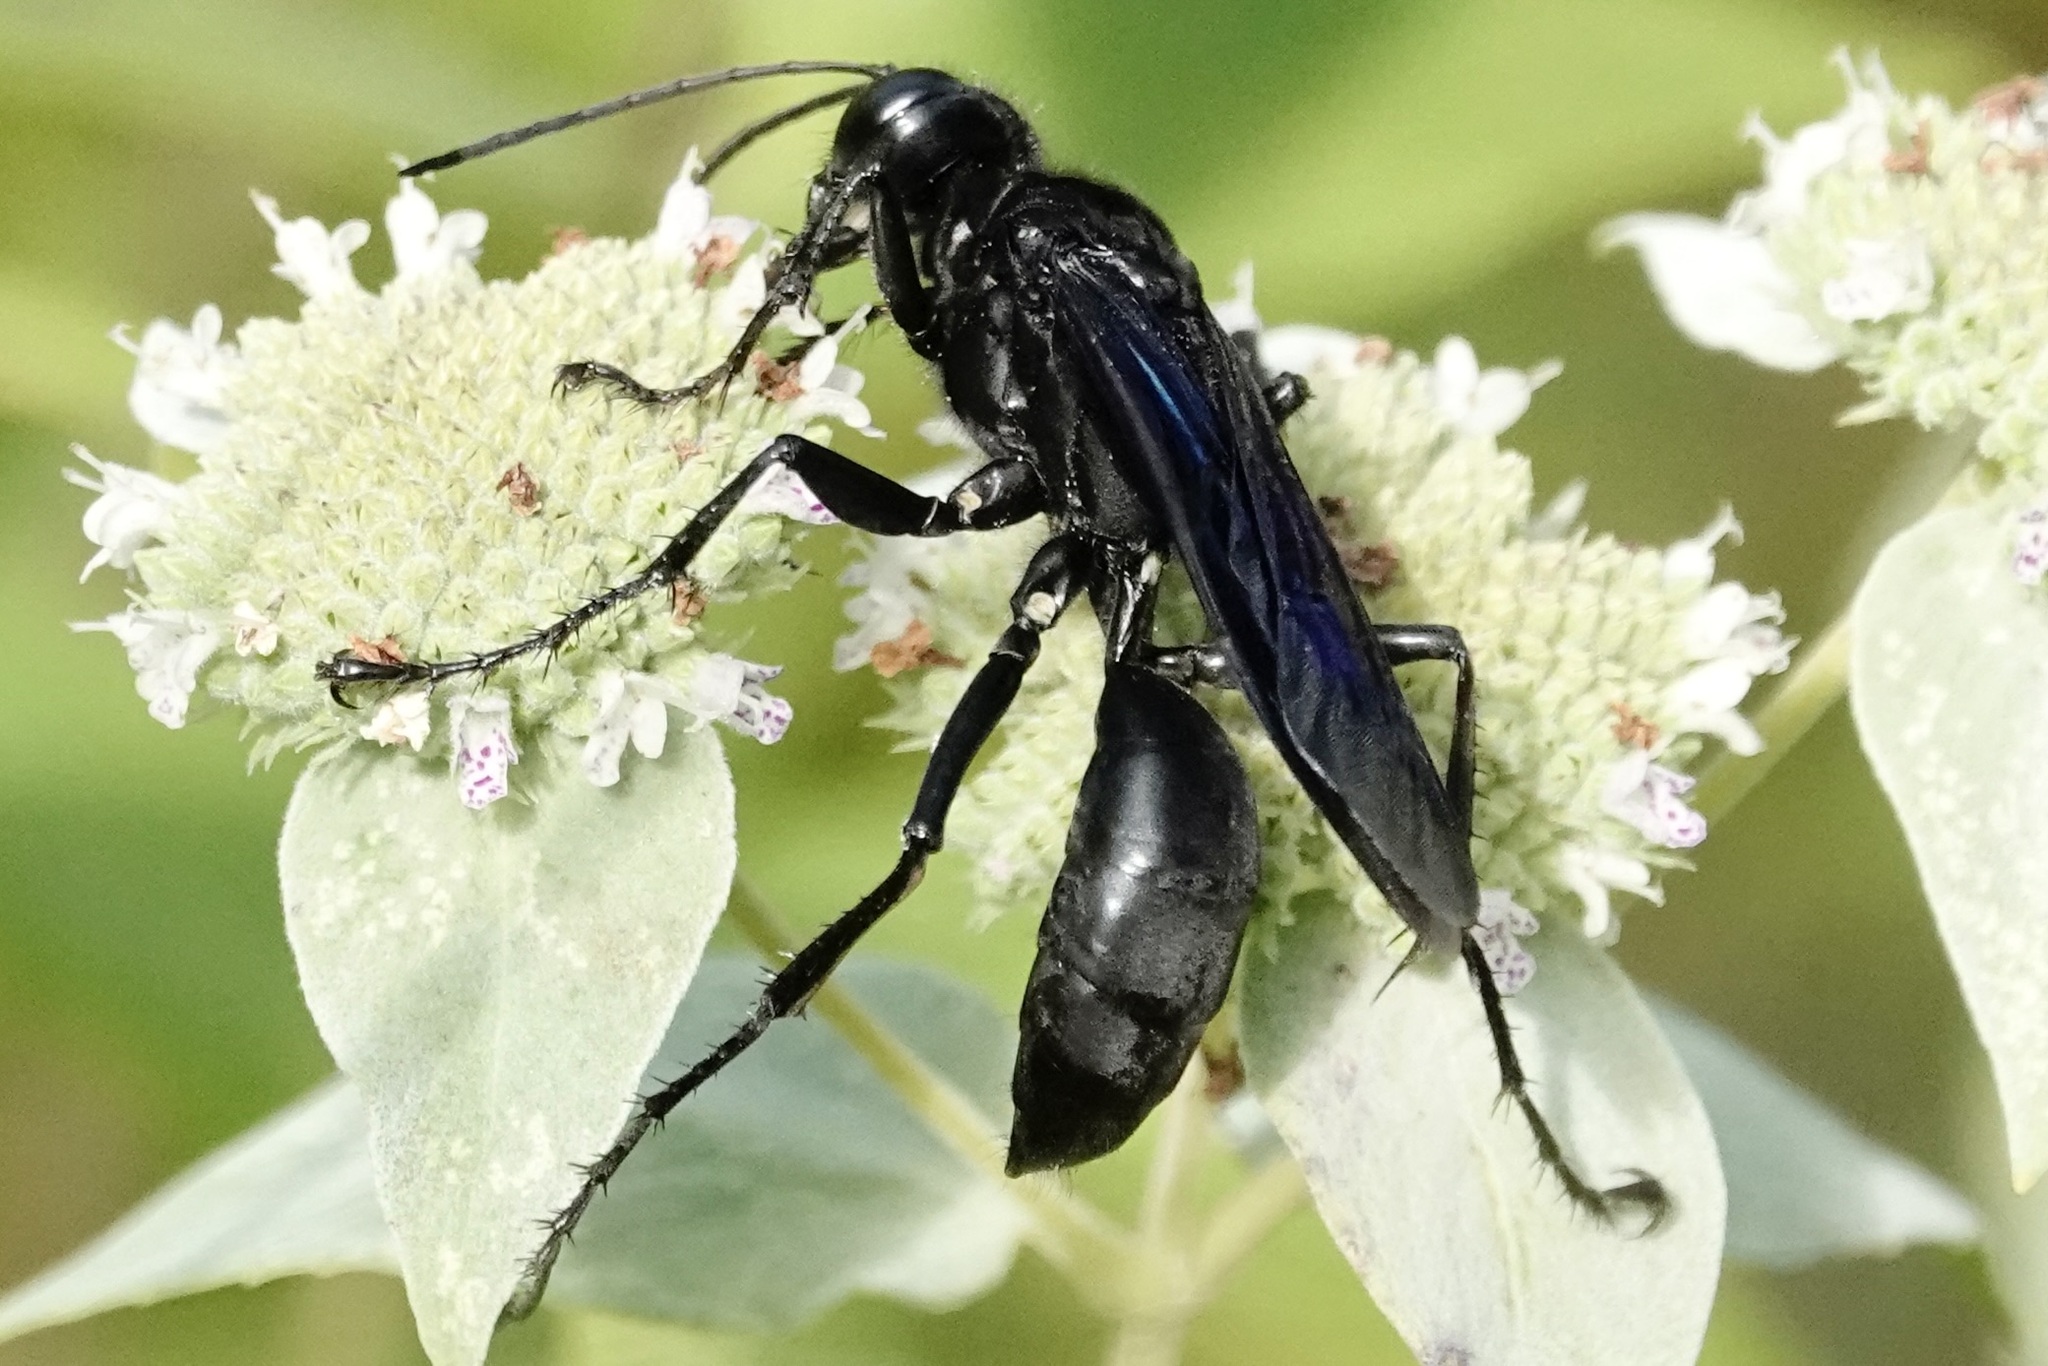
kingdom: Animalia
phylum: Arthropoda
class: Insecta
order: Hymenoptera
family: Sphecidae
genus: Sphex
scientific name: Sphex pensylvanicus
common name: Great black digger wasp
